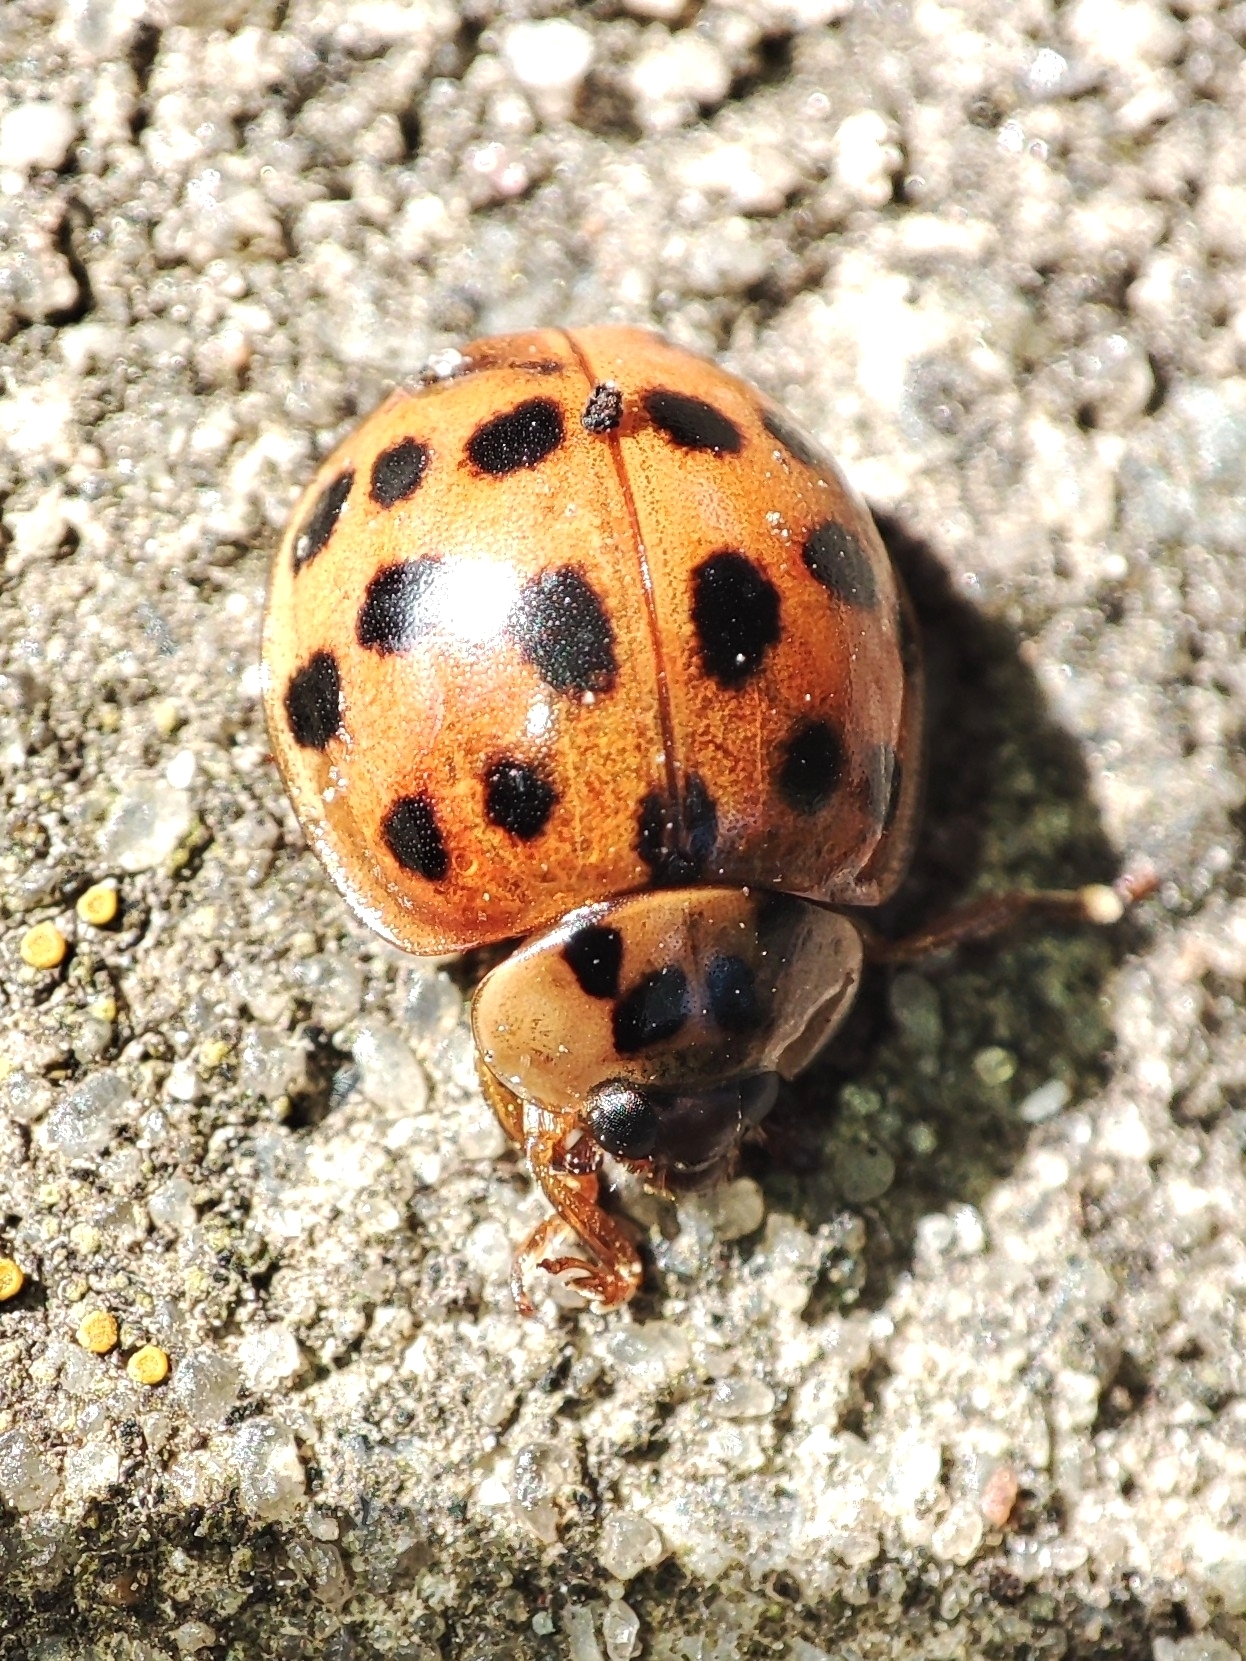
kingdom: Animalia
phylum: Arthropoda
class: Insecta
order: Coleoptera
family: Coccinellidae
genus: Harmonia
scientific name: Harmonia axyridis
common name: Harlequin ladybird
